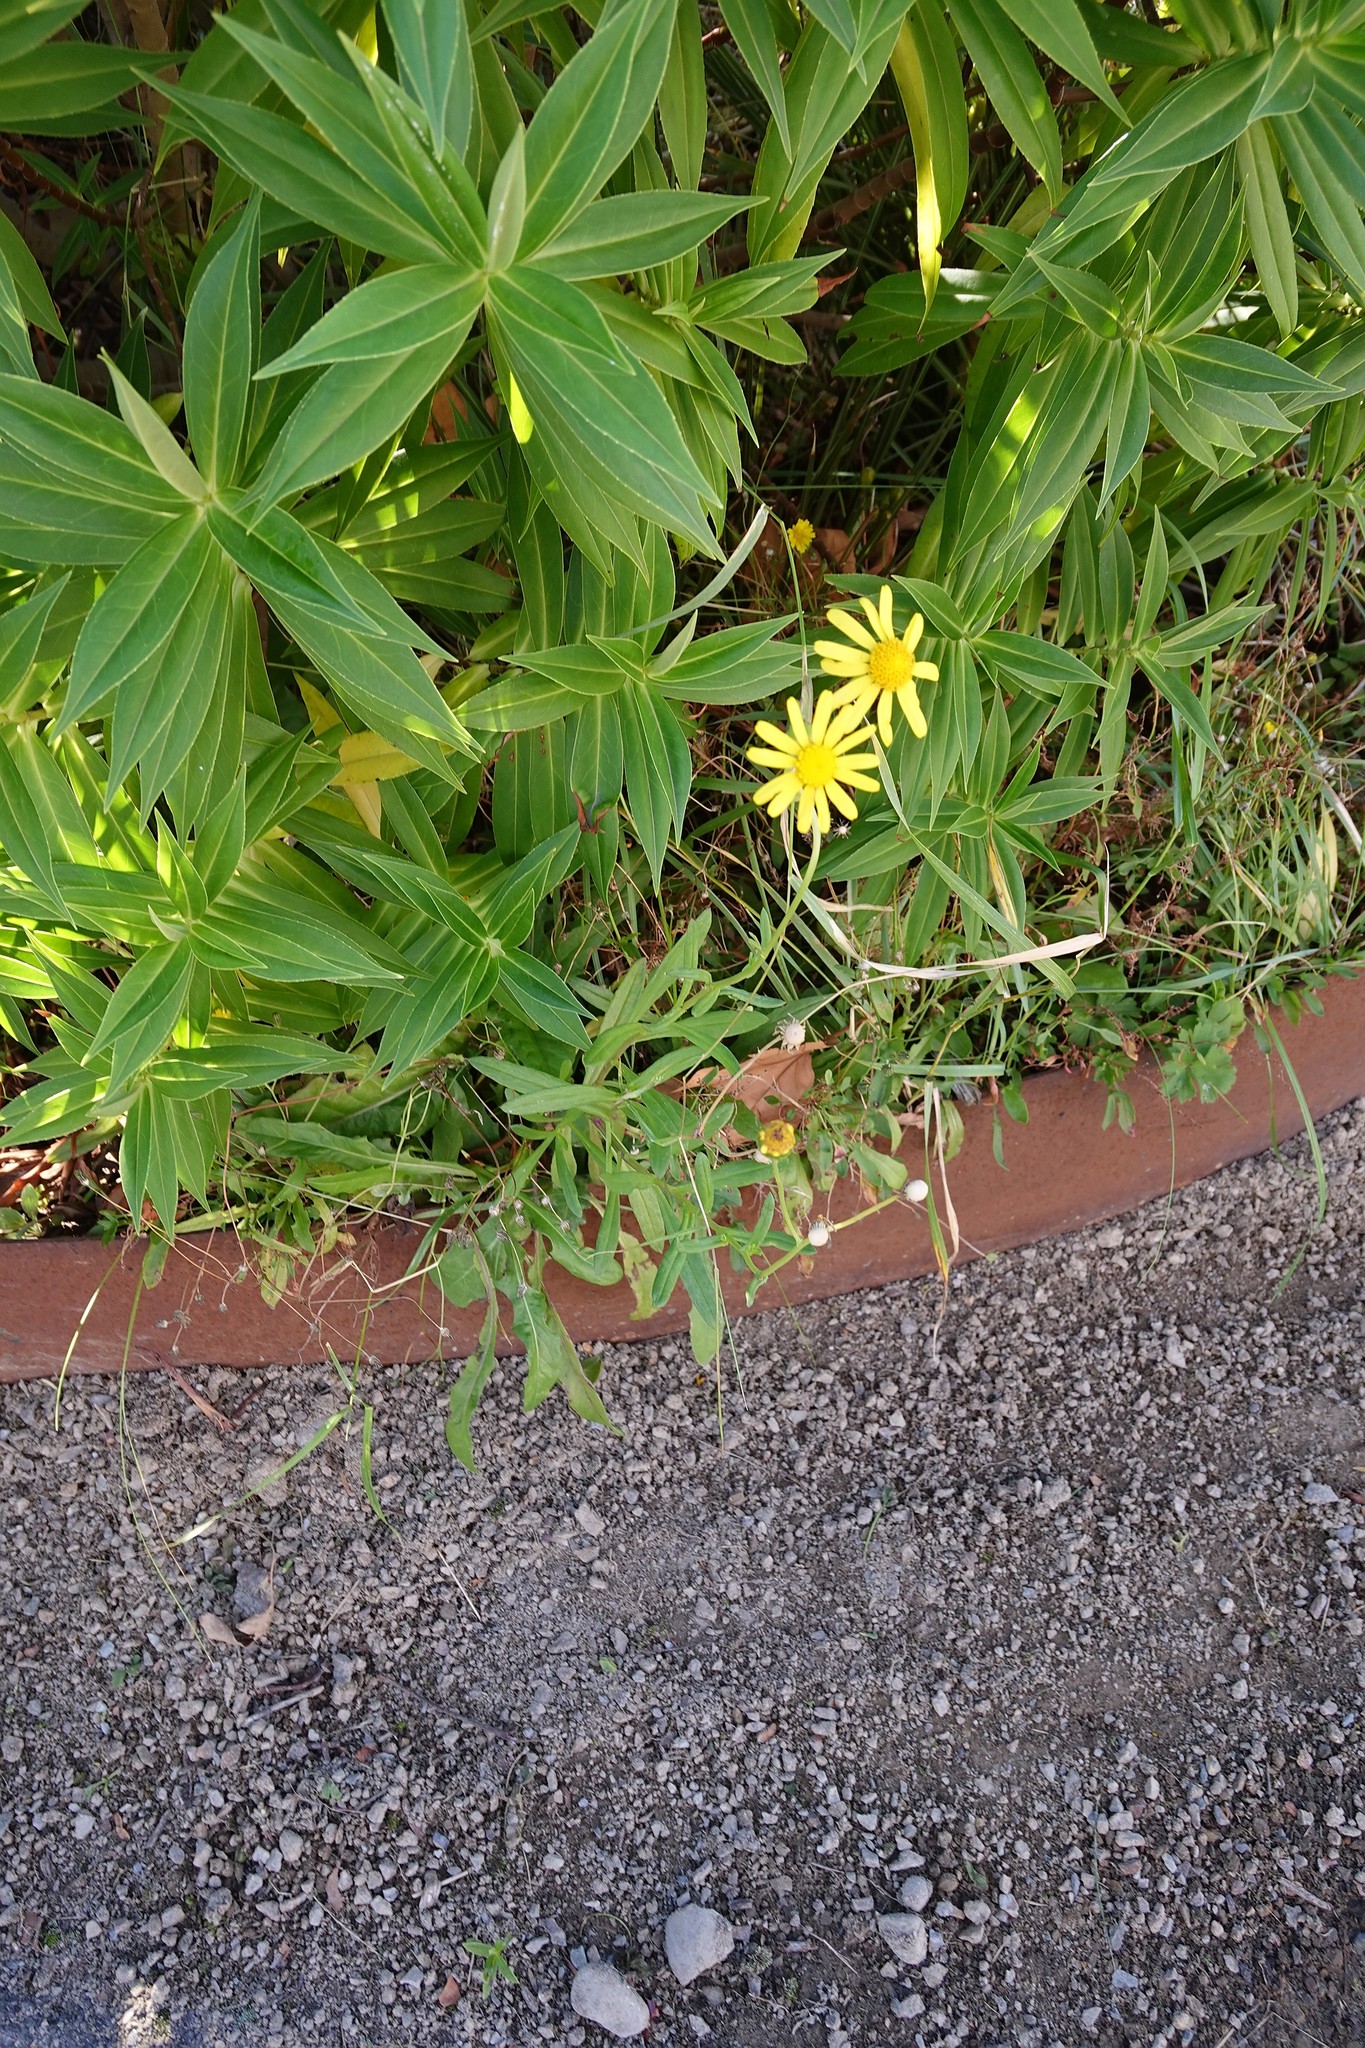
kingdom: Plantae
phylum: Tracheophyta
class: Magnoliopsida
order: Asterales
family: Asteraceae
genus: Senecio
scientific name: Senecio skirrhodon
